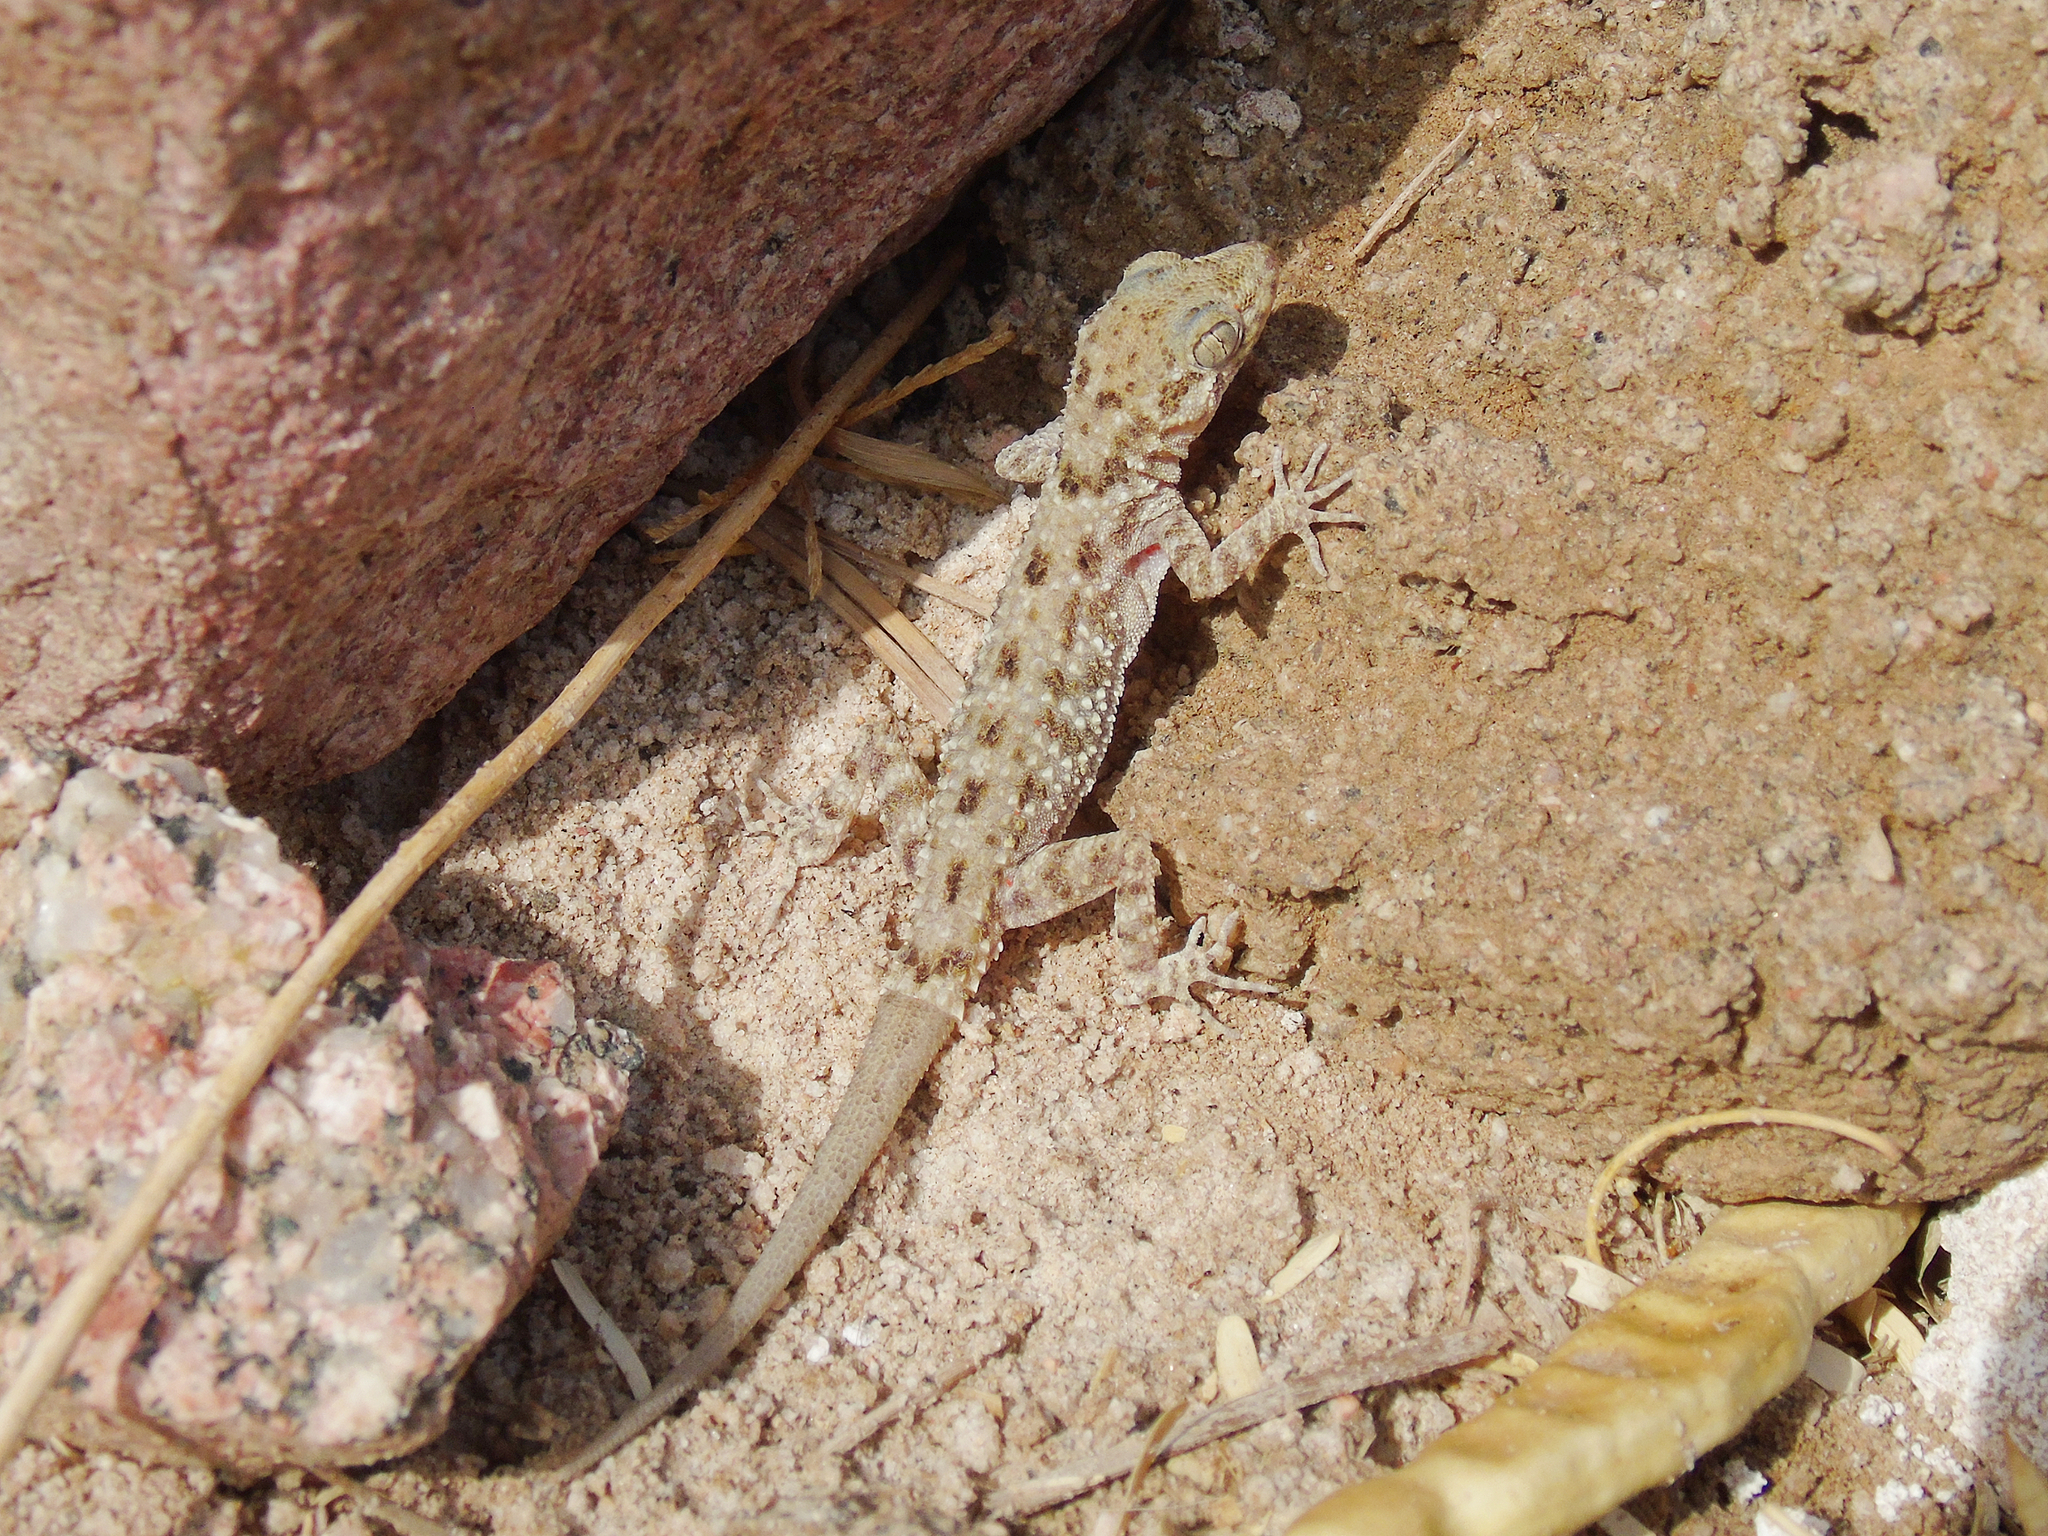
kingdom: Animalia
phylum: Chordata
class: Squamata
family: Gekkonidae
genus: Cyrtopodion
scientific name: Cyrtopodion scabrum
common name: Rough-tailed gecko
